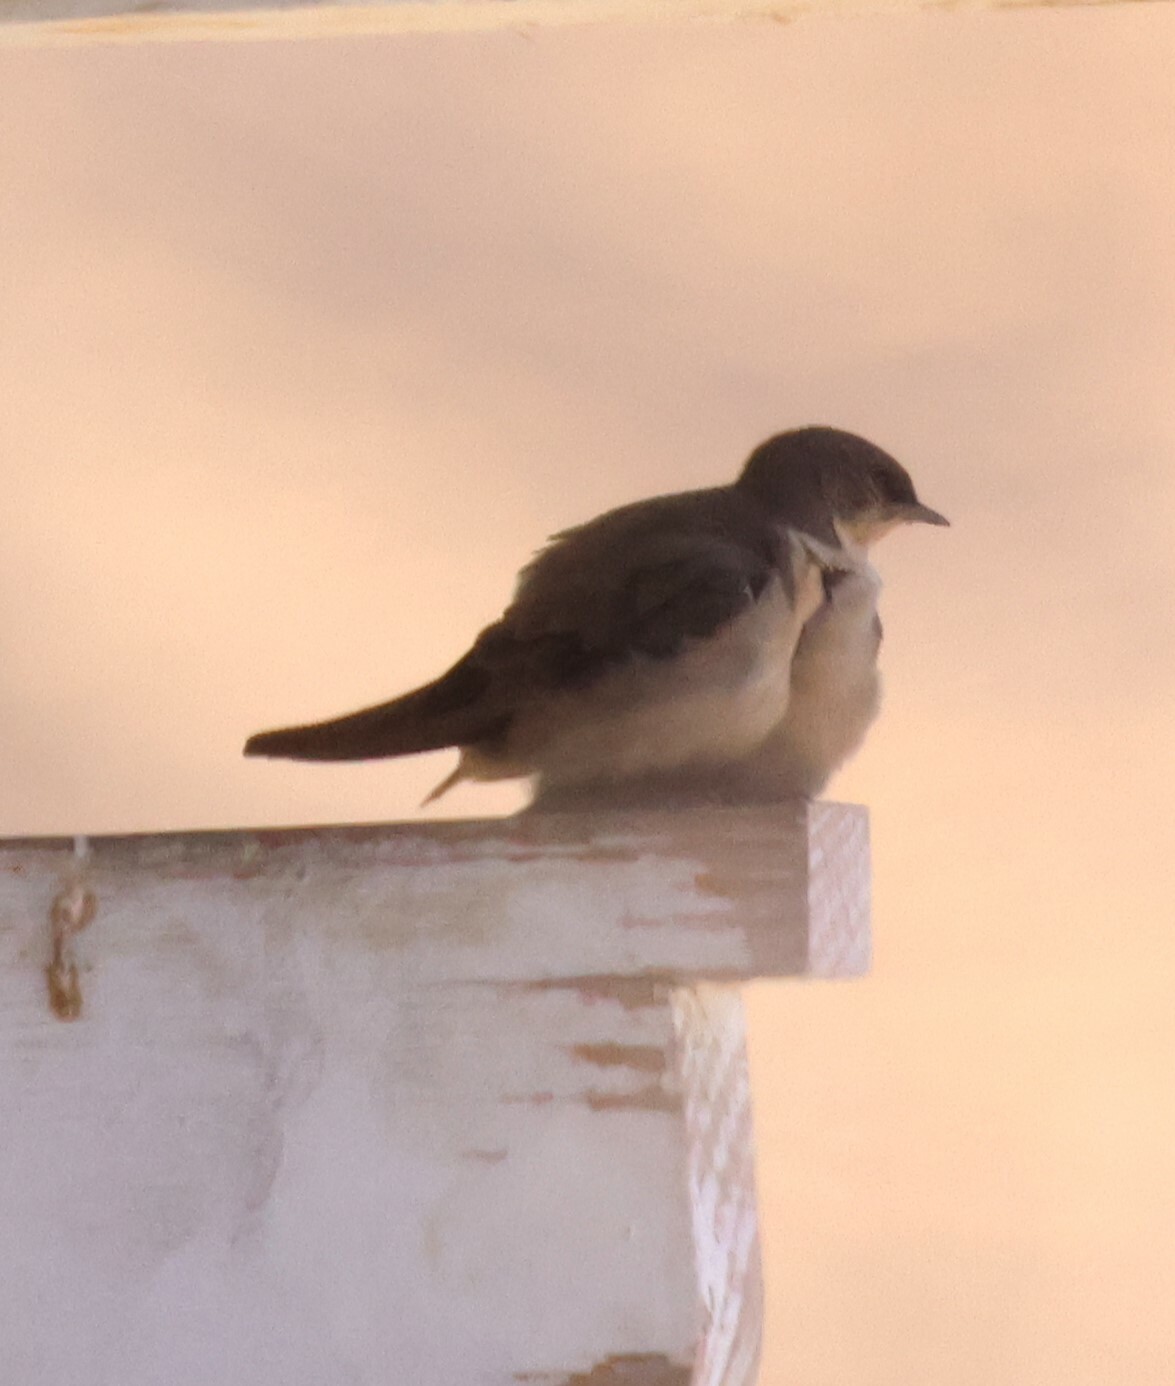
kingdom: Animalia
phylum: Chordata
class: Aves
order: Passeriformes
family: Hirundinidae
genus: Ptyonoprogne
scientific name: Ptyonoprogne fuligula
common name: Rock martin
